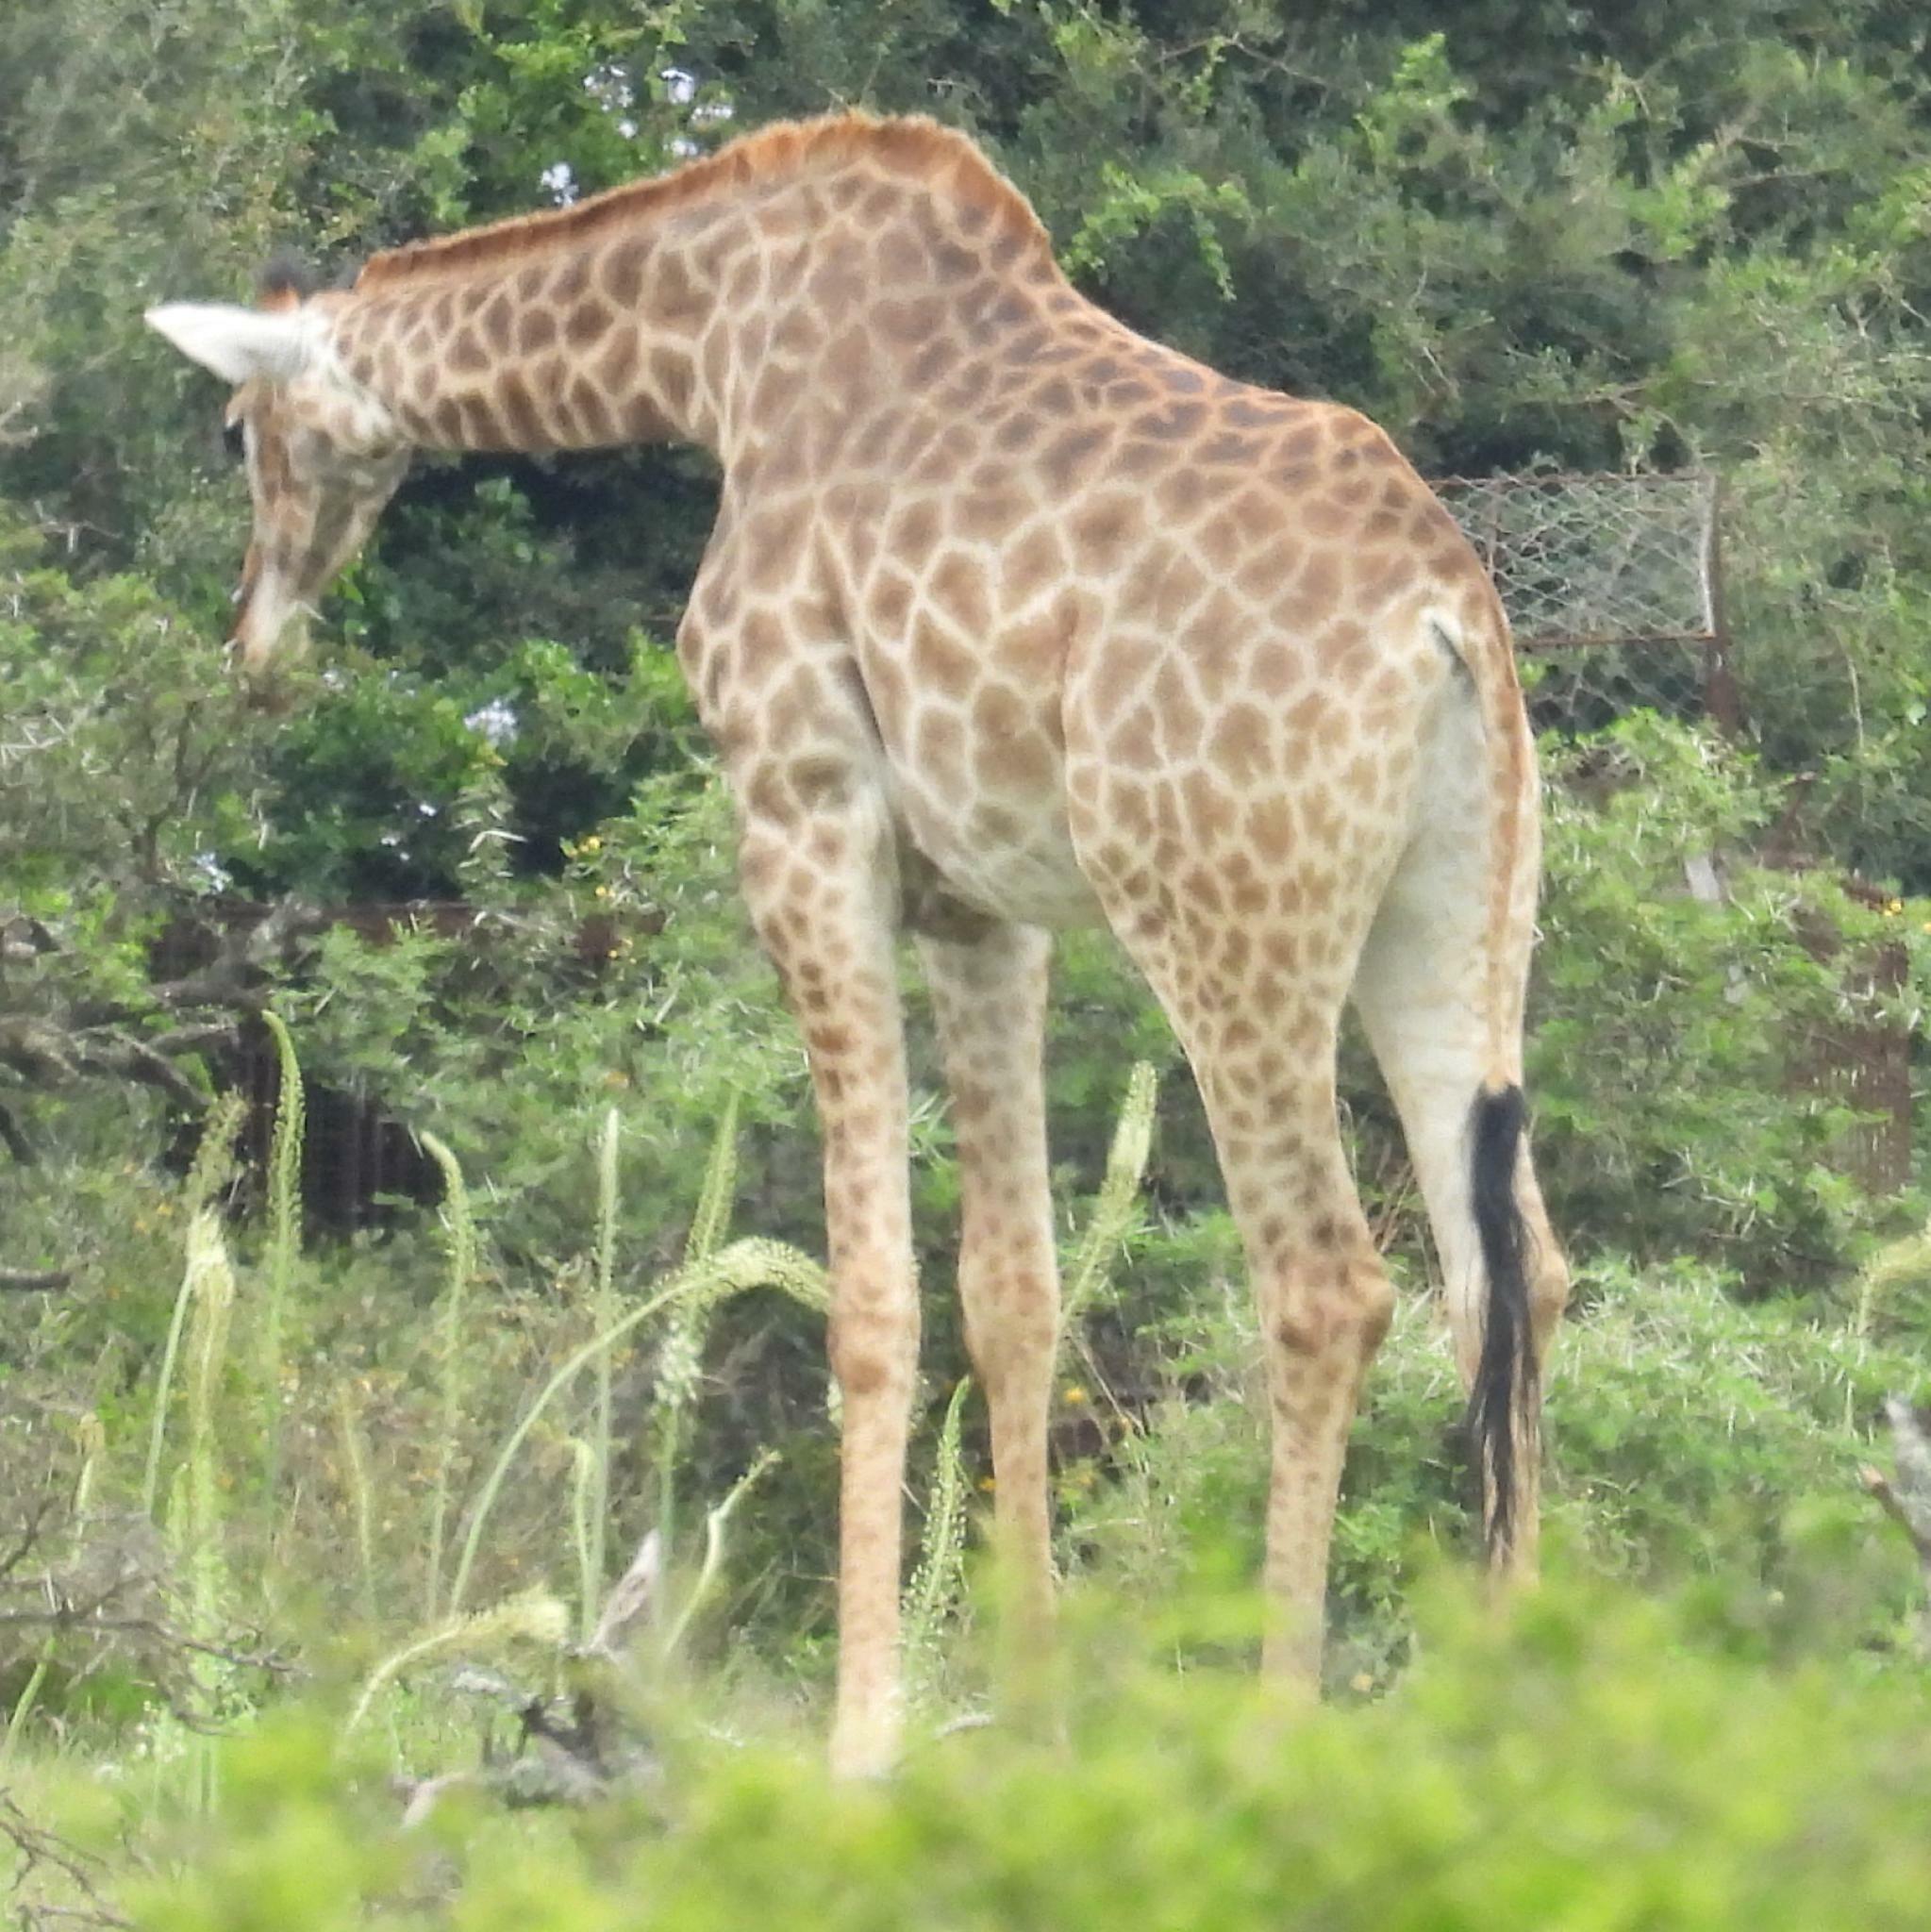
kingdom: Animalia
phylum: Chordata
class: Mammalia
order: Artiodactyla
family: Giraffidae
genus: Giraffa
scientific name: Giraffa giraffa
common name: Southern giraffe
